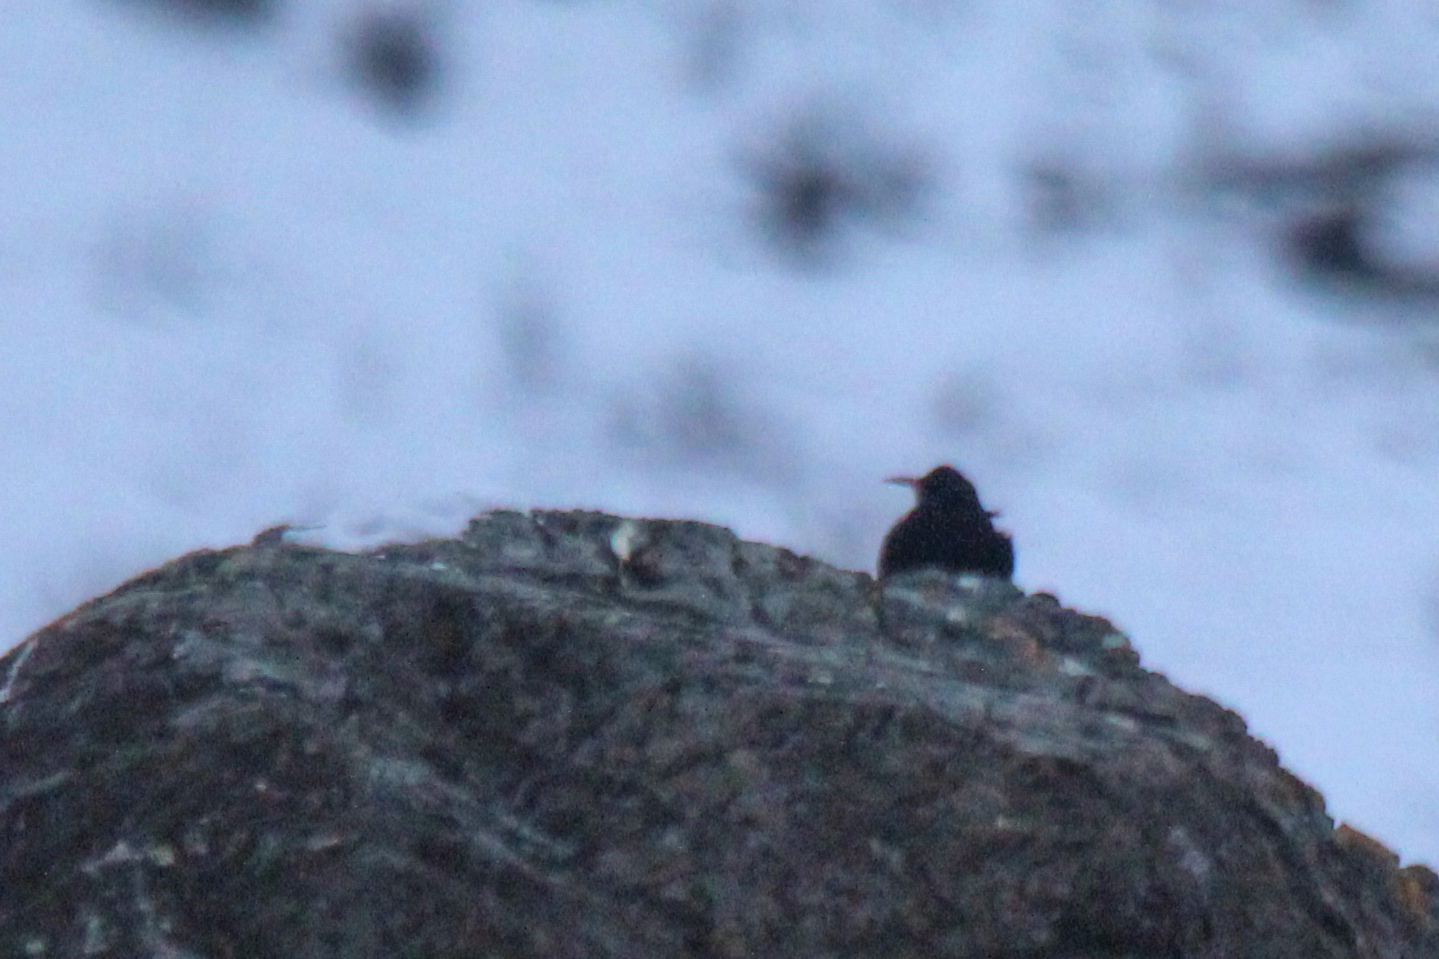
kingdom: Animalia
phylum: Chordata
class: Aves
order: Passeriformes
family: Corvidae
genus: Pyrrhocorax
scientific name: Pyrrhocorax pyrrhocorax
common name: Red-billed chough
